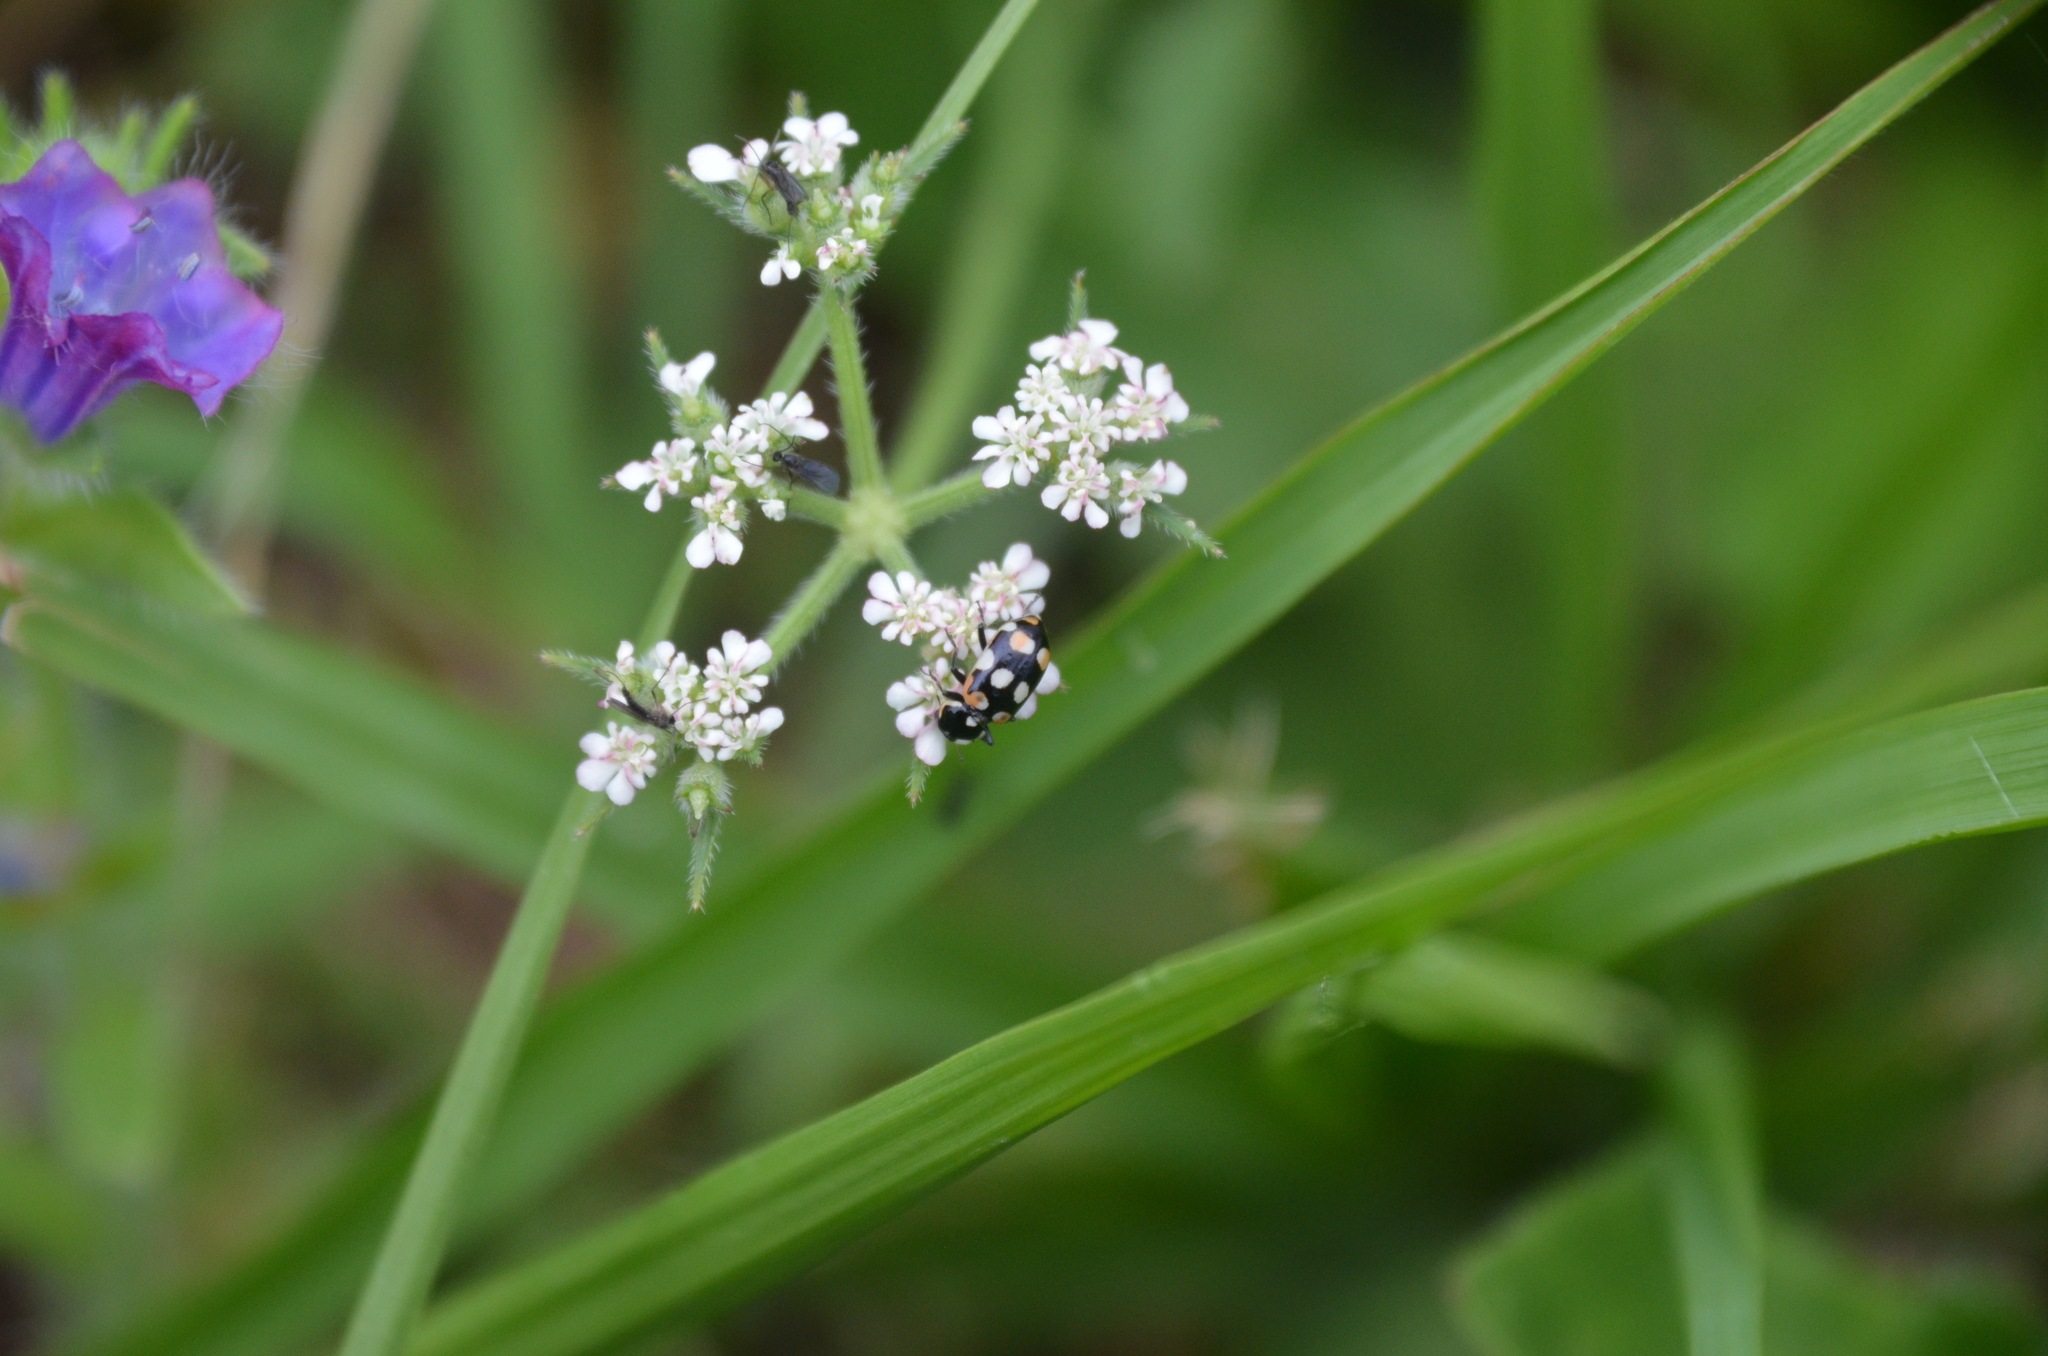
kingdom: Animalia
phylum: Arthropoda
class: Insecta
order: Coleoptera
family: Coccinellidae
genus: Eriopis
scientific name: Eriopis connexa
